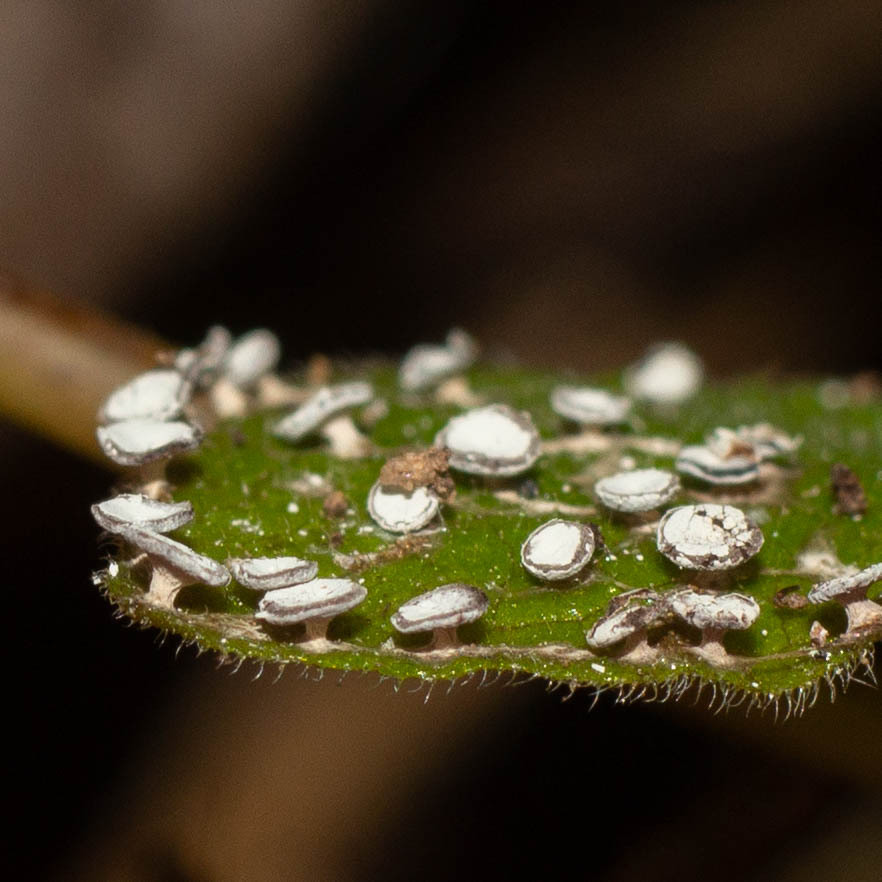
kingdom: Protozoa
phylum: Mycetozoa
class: Myxomycetes
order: Physarales
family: Didymiaceae
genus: Diderma
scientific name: Diderma hemisphaericum
